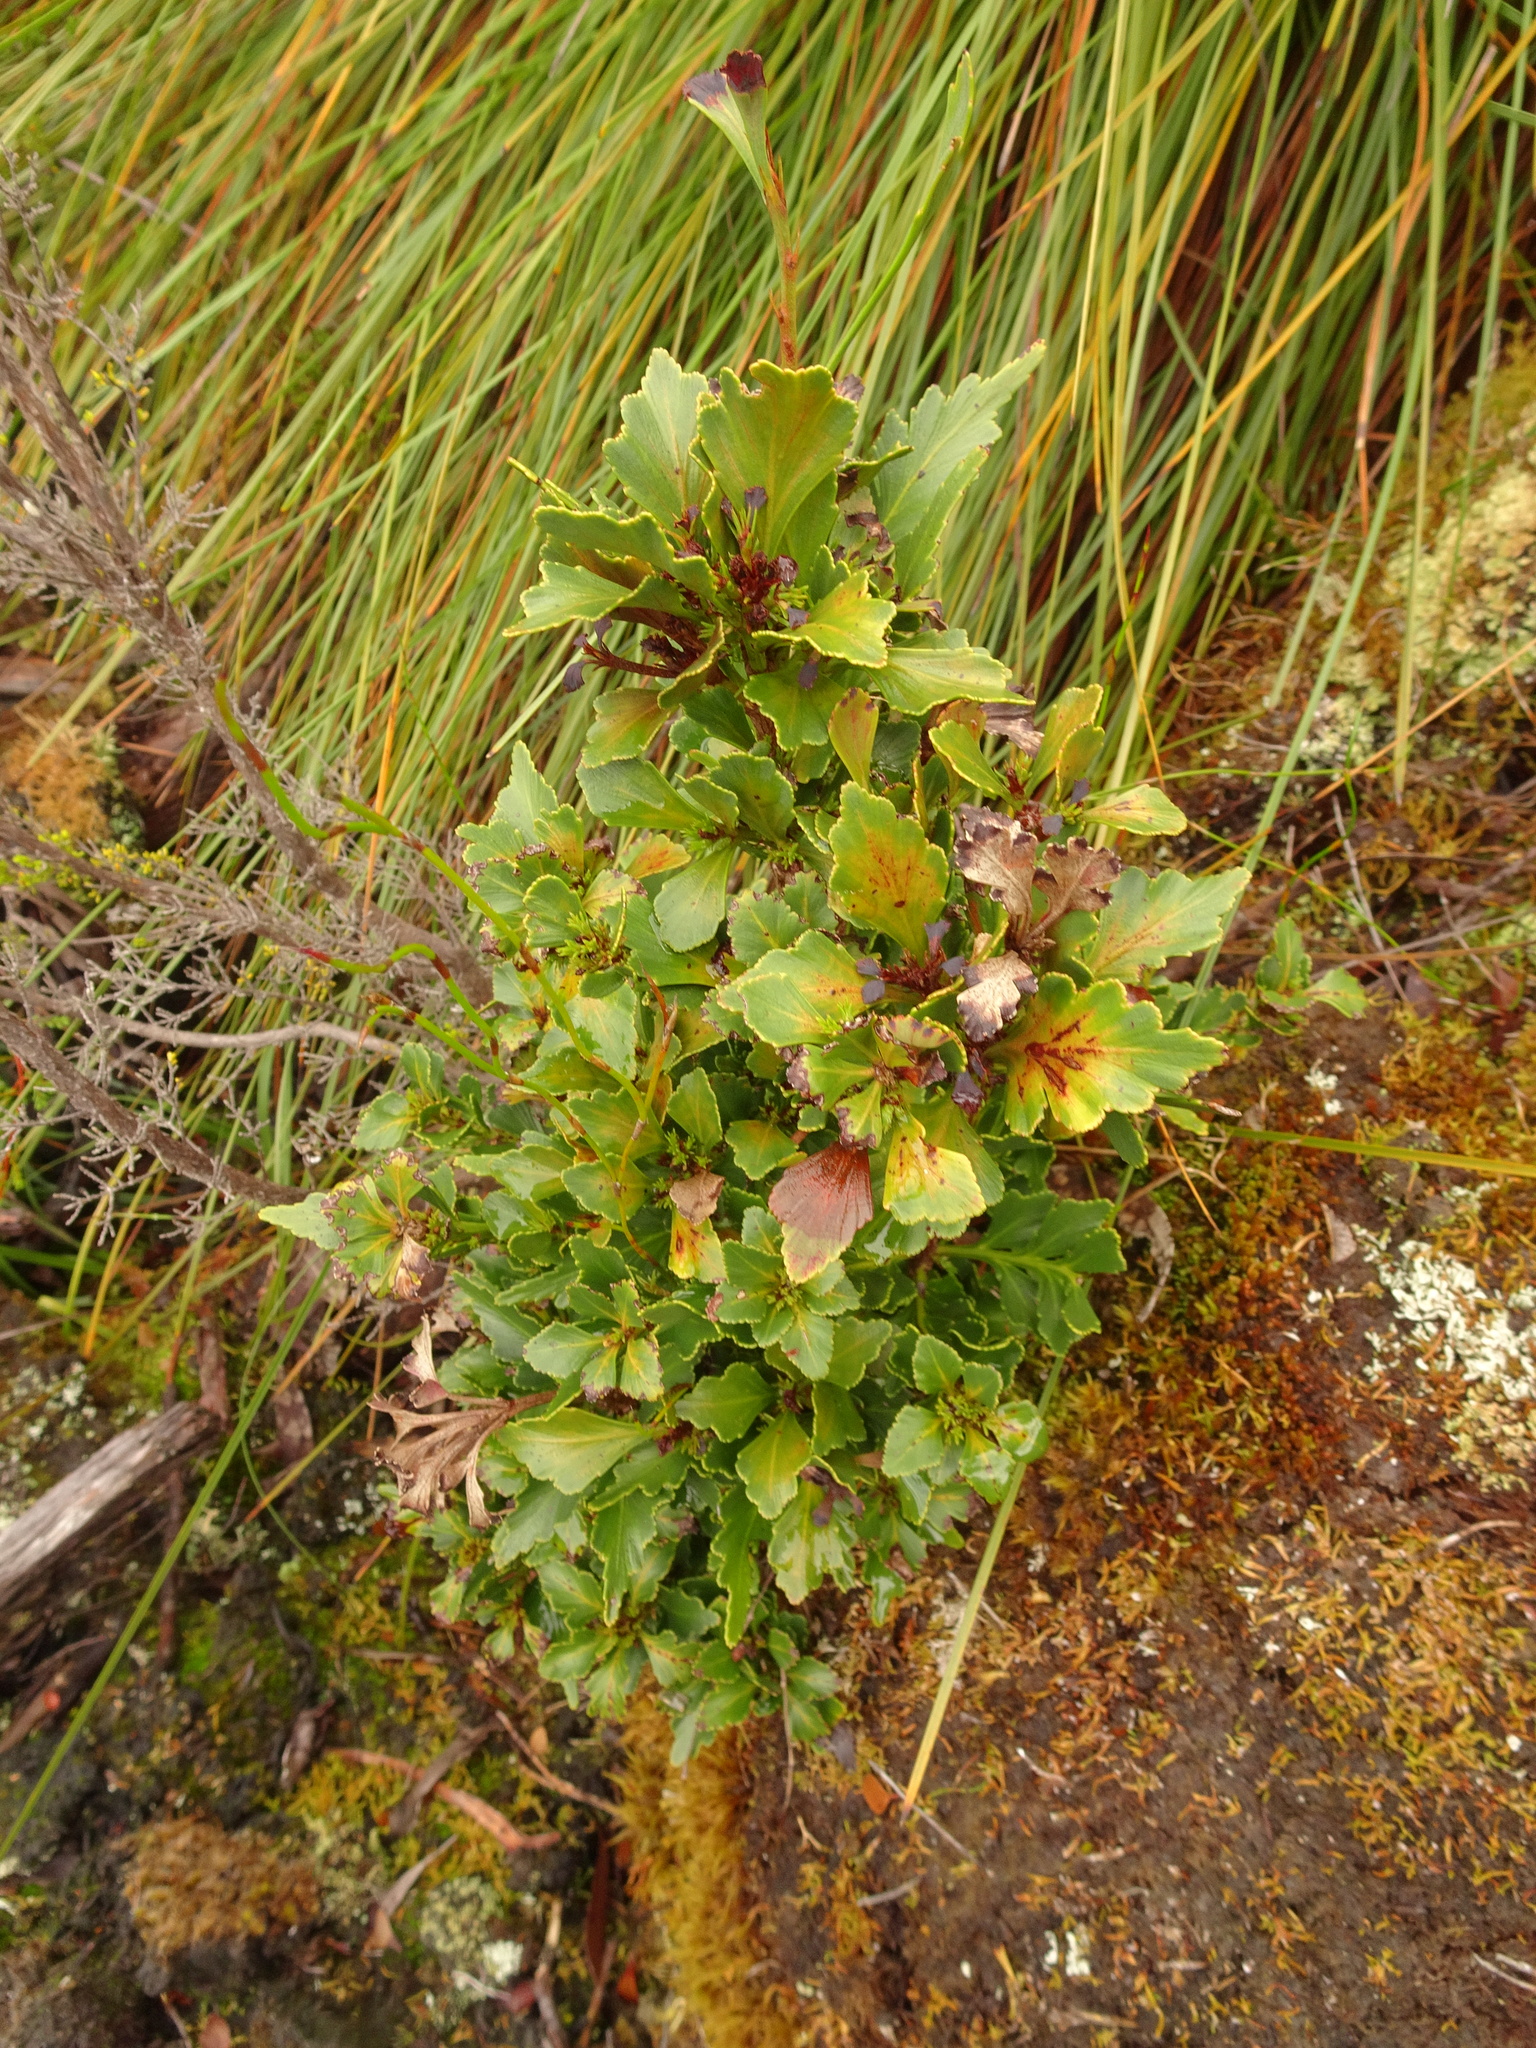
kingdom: Plantae
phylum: Tracheophyta
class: Pinopsida
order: Pinales
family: Phyllocladaceae
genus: Phyllocladus
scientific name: Phyllocladus aspleniifolius
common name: Celery-top pine
